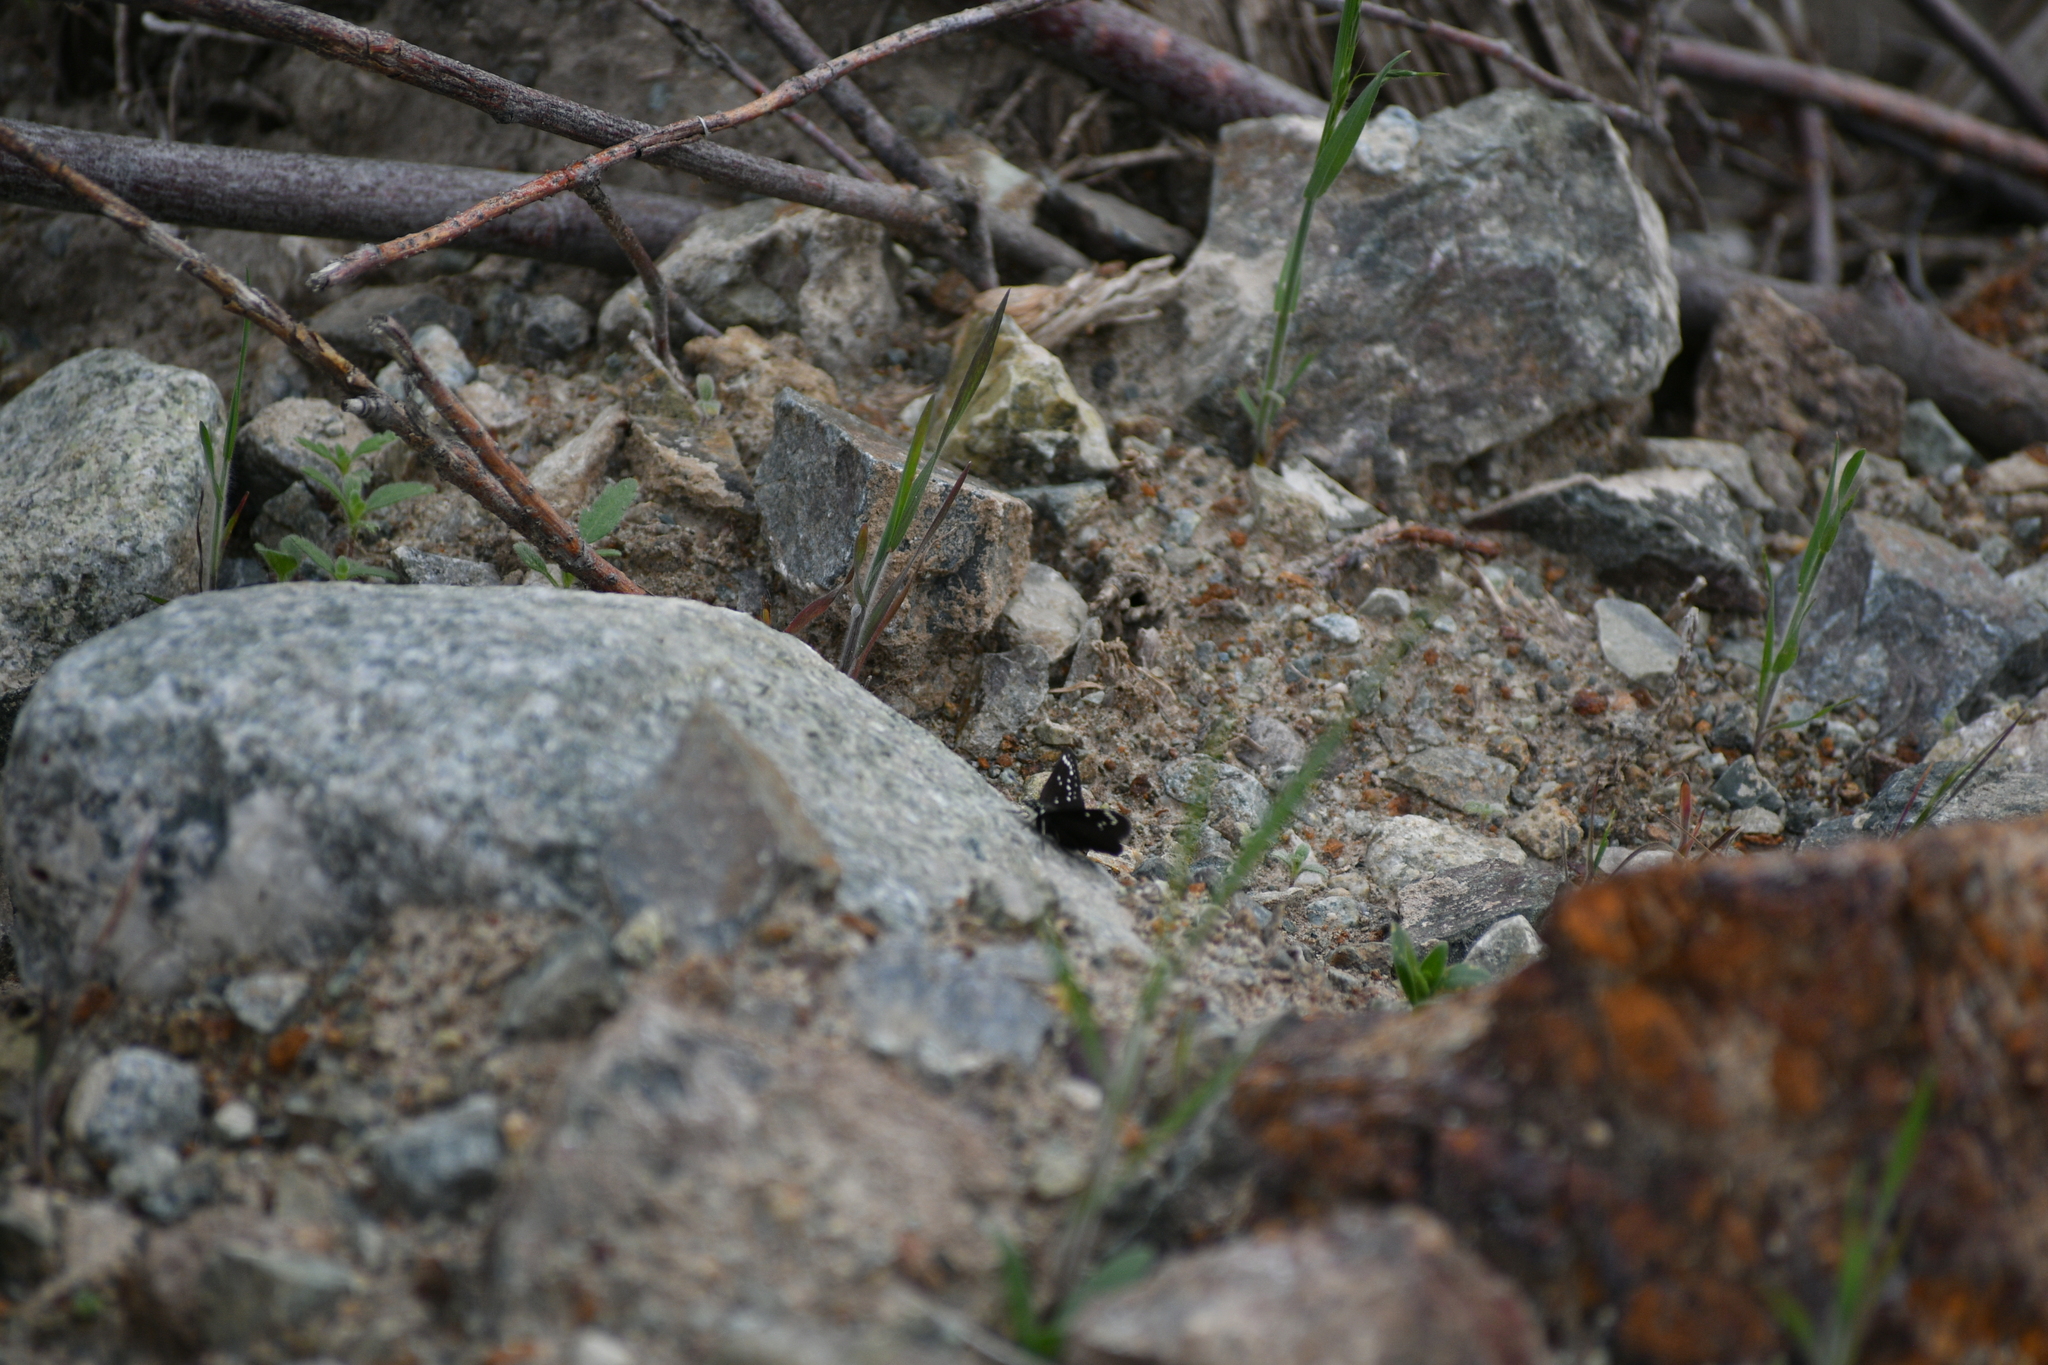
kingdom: Animalia
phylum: Arthropoda
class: Insecta
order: Lepidoptera
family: Hesperiidae
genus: Pholisora
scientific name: Pholisora catullus
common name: Common sootywing
